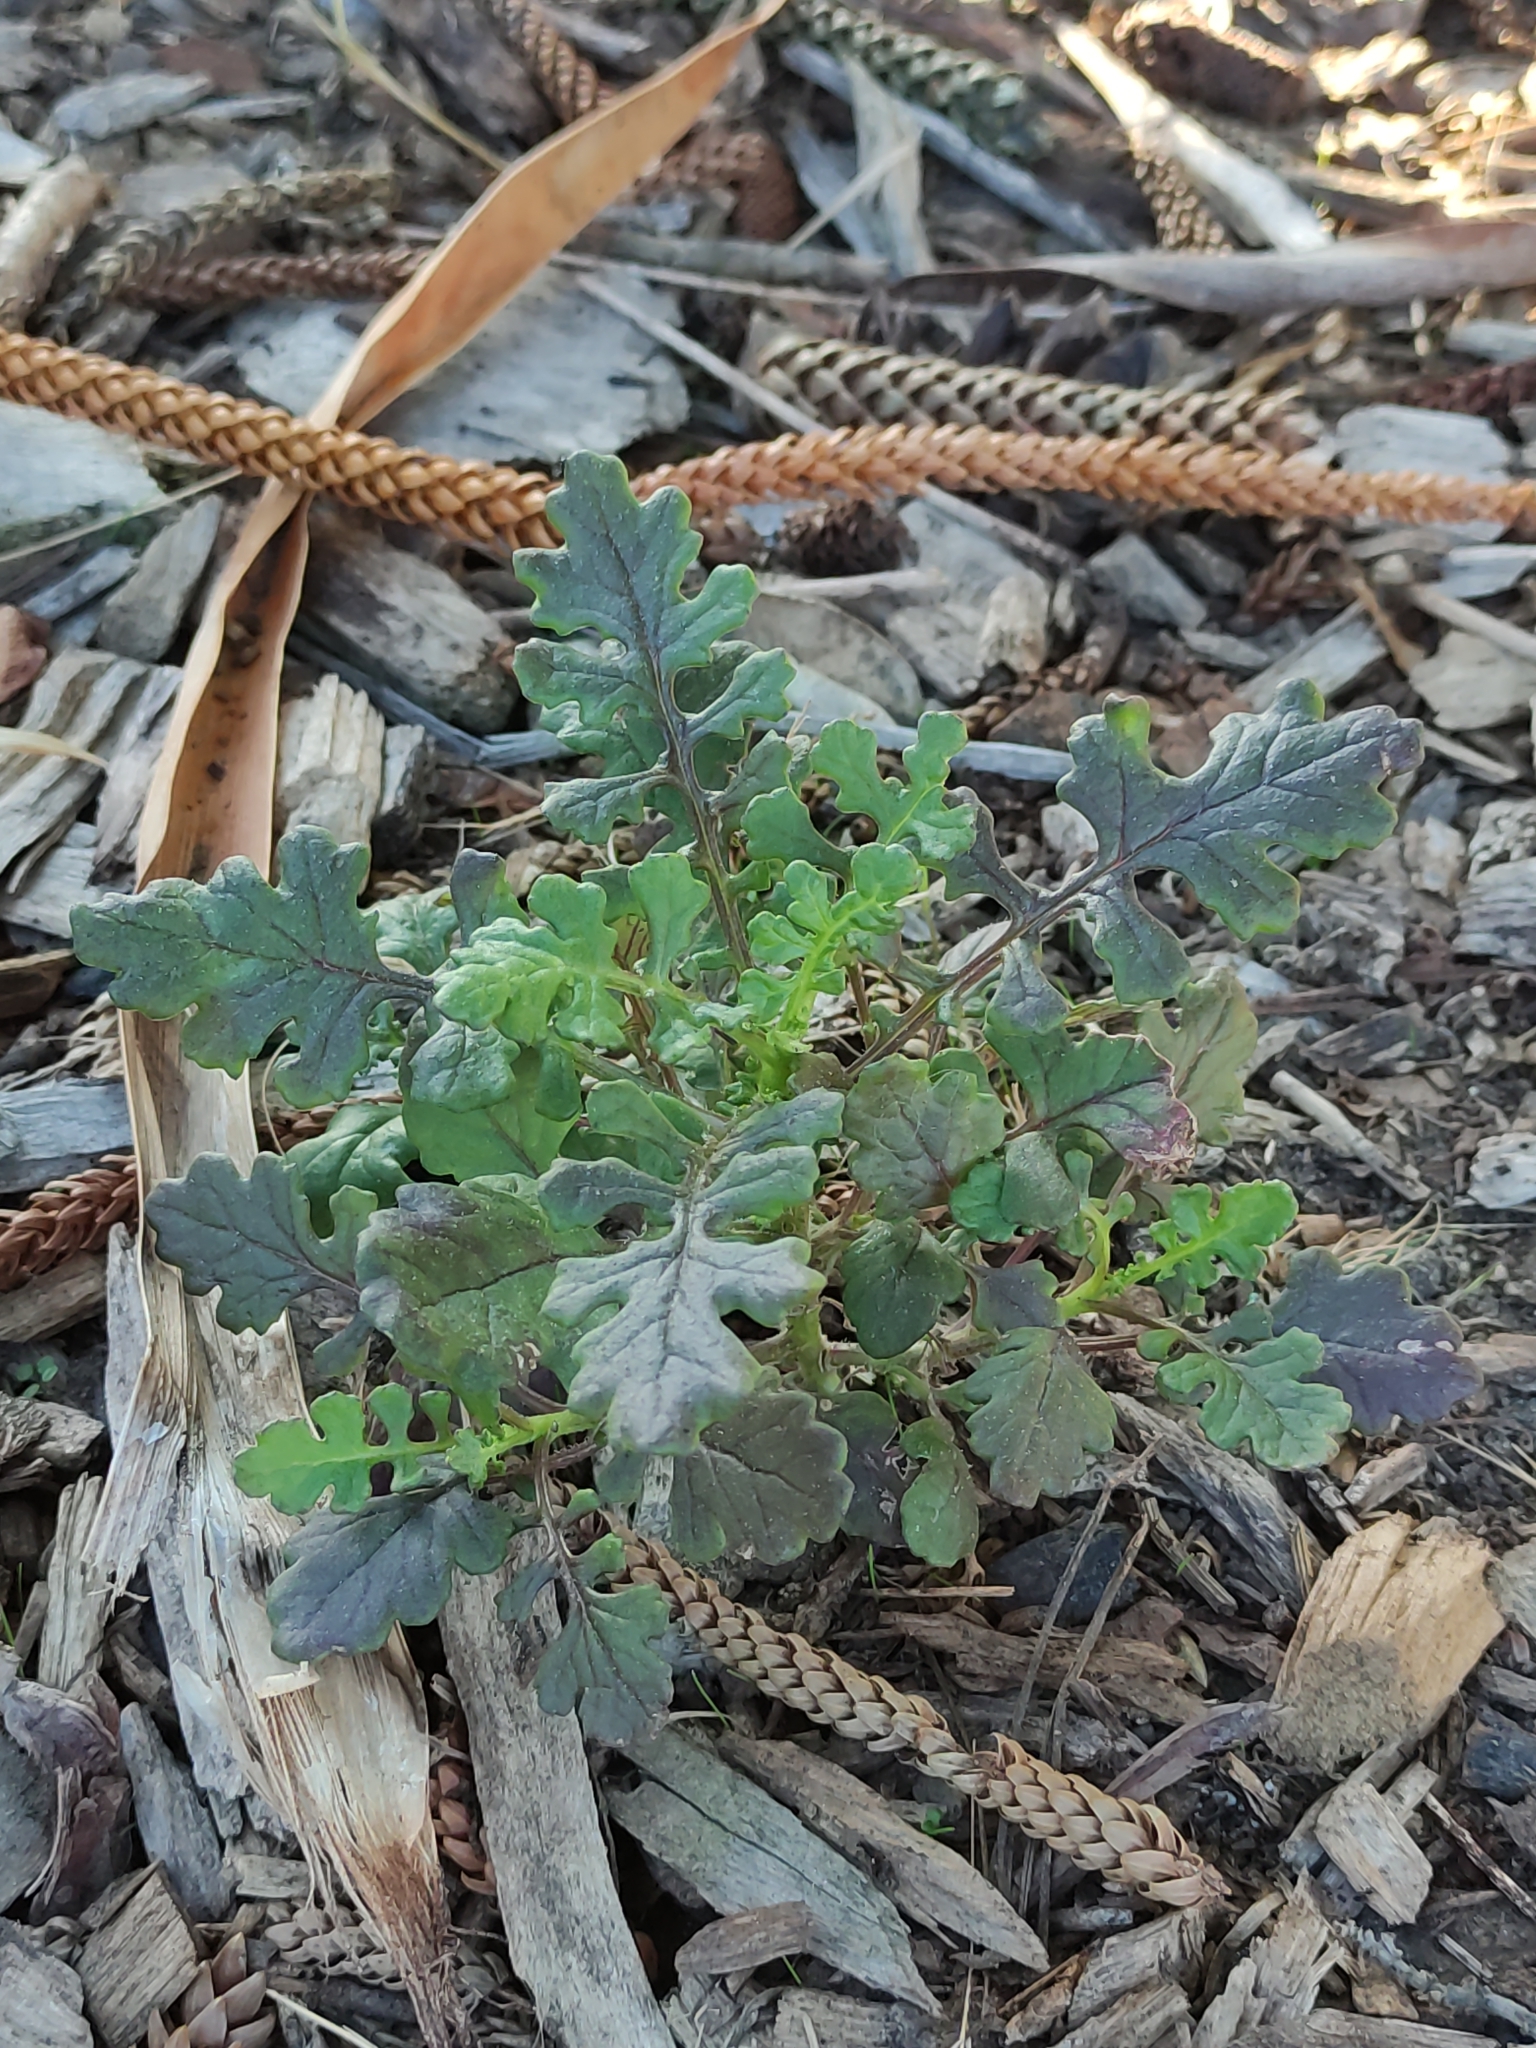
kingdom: Plantae
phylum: Tracheophyta
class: Magnoliopsida
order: Asterales
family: Asteraceae
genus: Senecio
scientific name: Senecio elegans
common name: Purple groundsel
